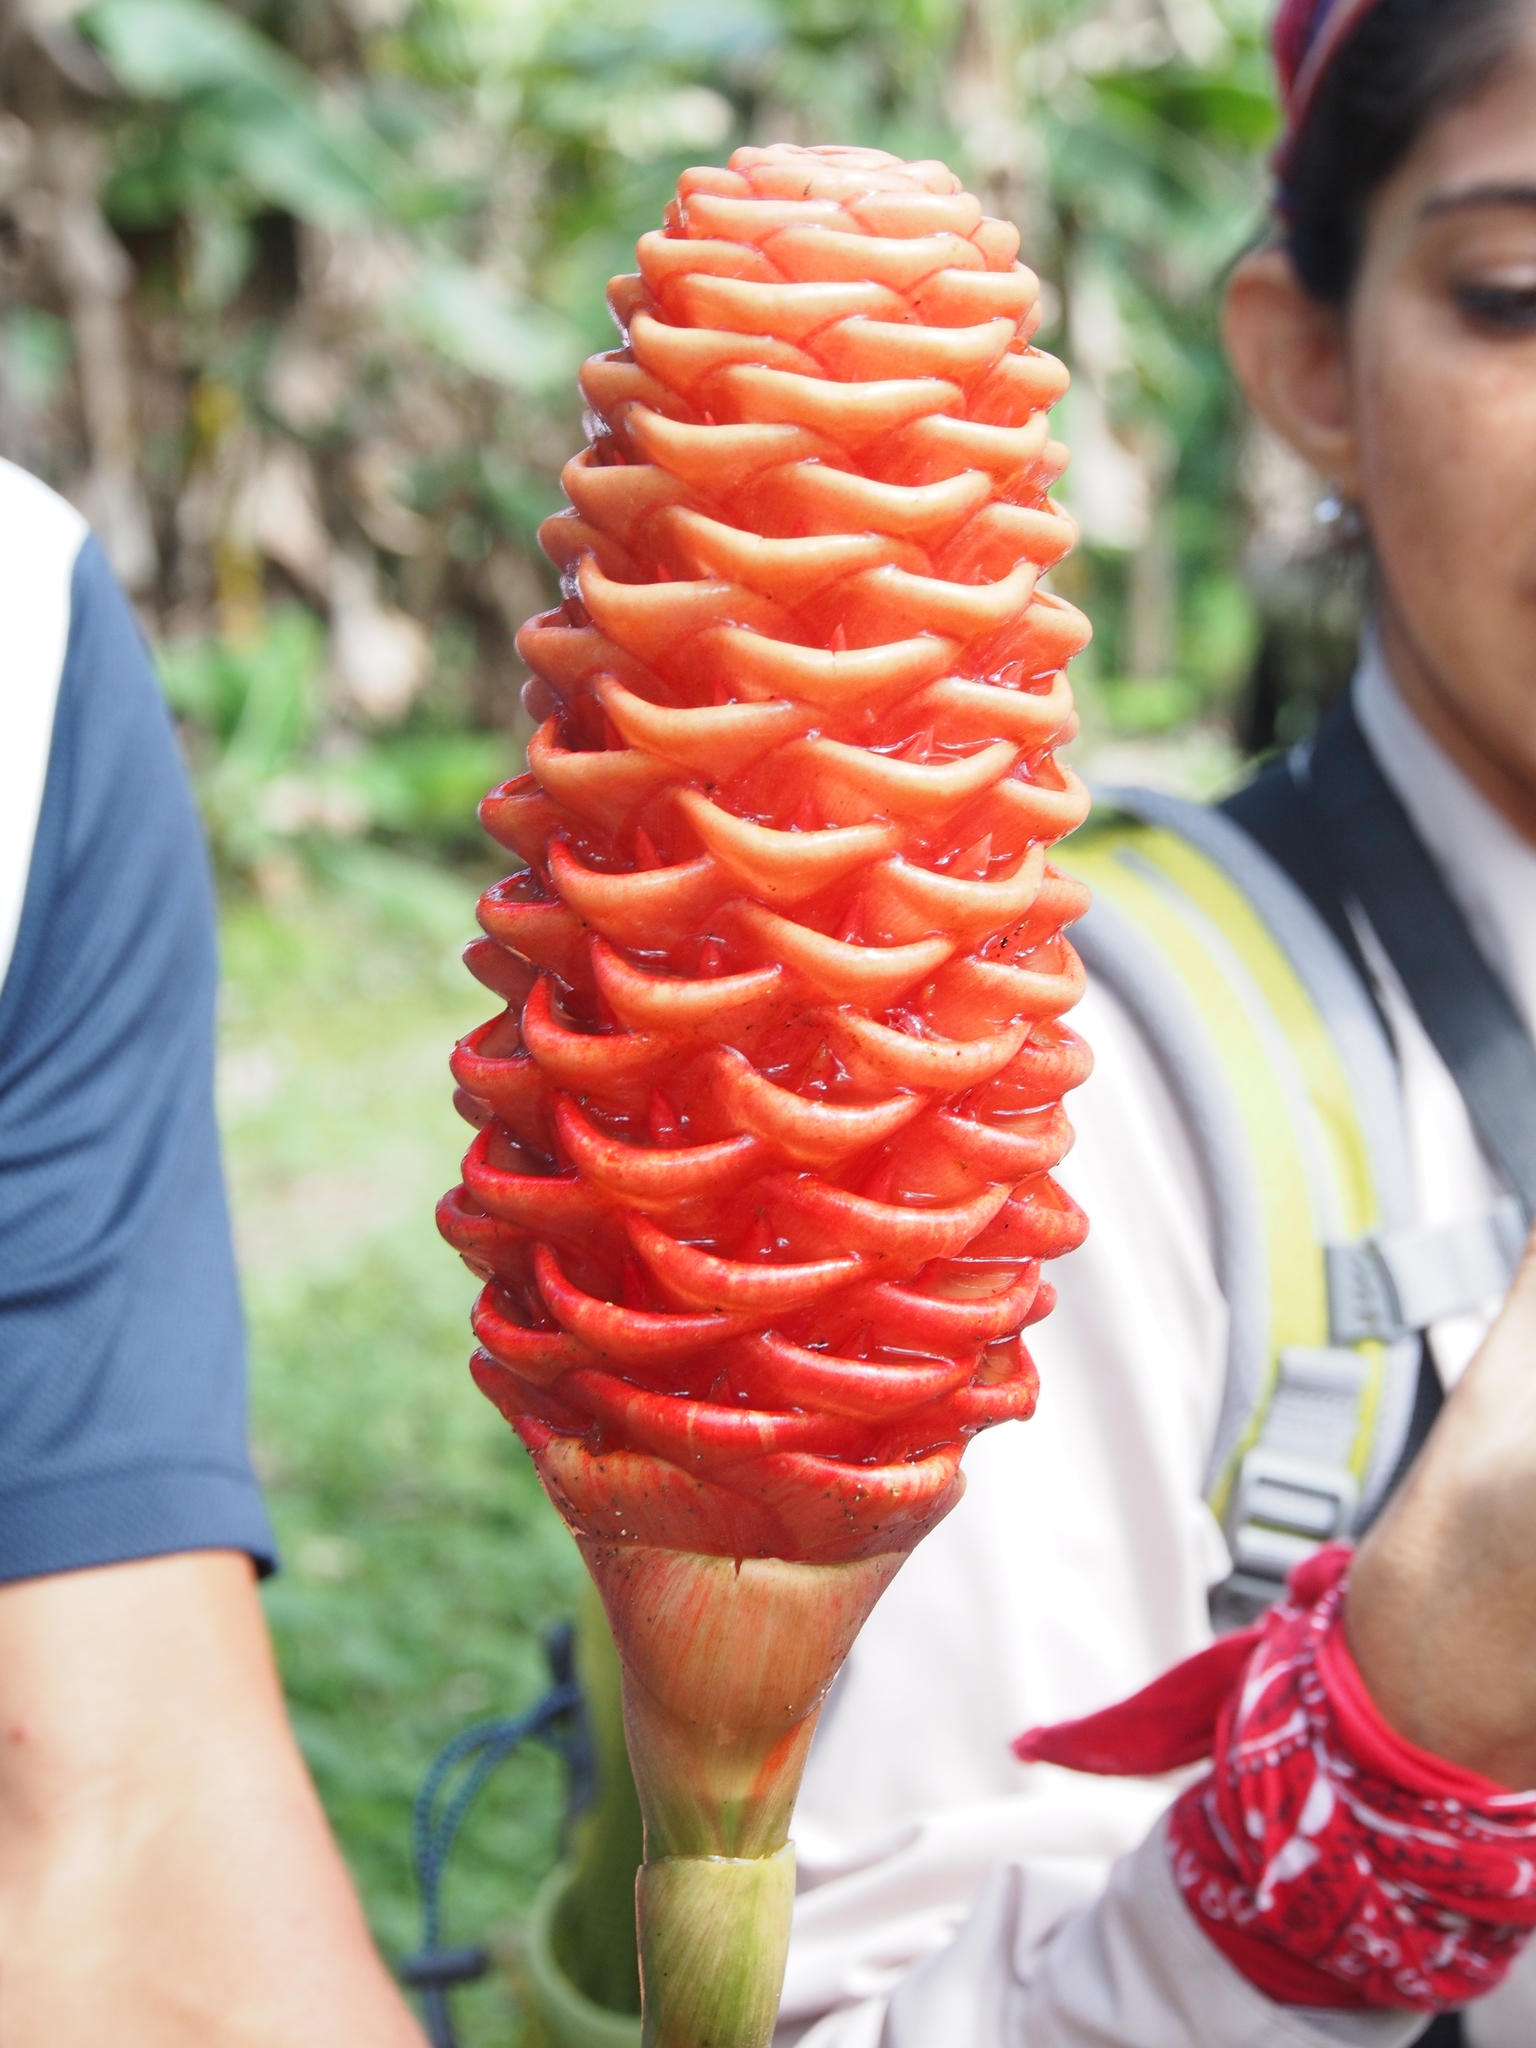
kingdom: Plantae
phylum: Tracheophyta
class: Liliopsida
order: Zingiberales
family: Zingiberaceae
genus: Zingiber
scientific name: Zingiber spectabile
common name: Beehive ginger
